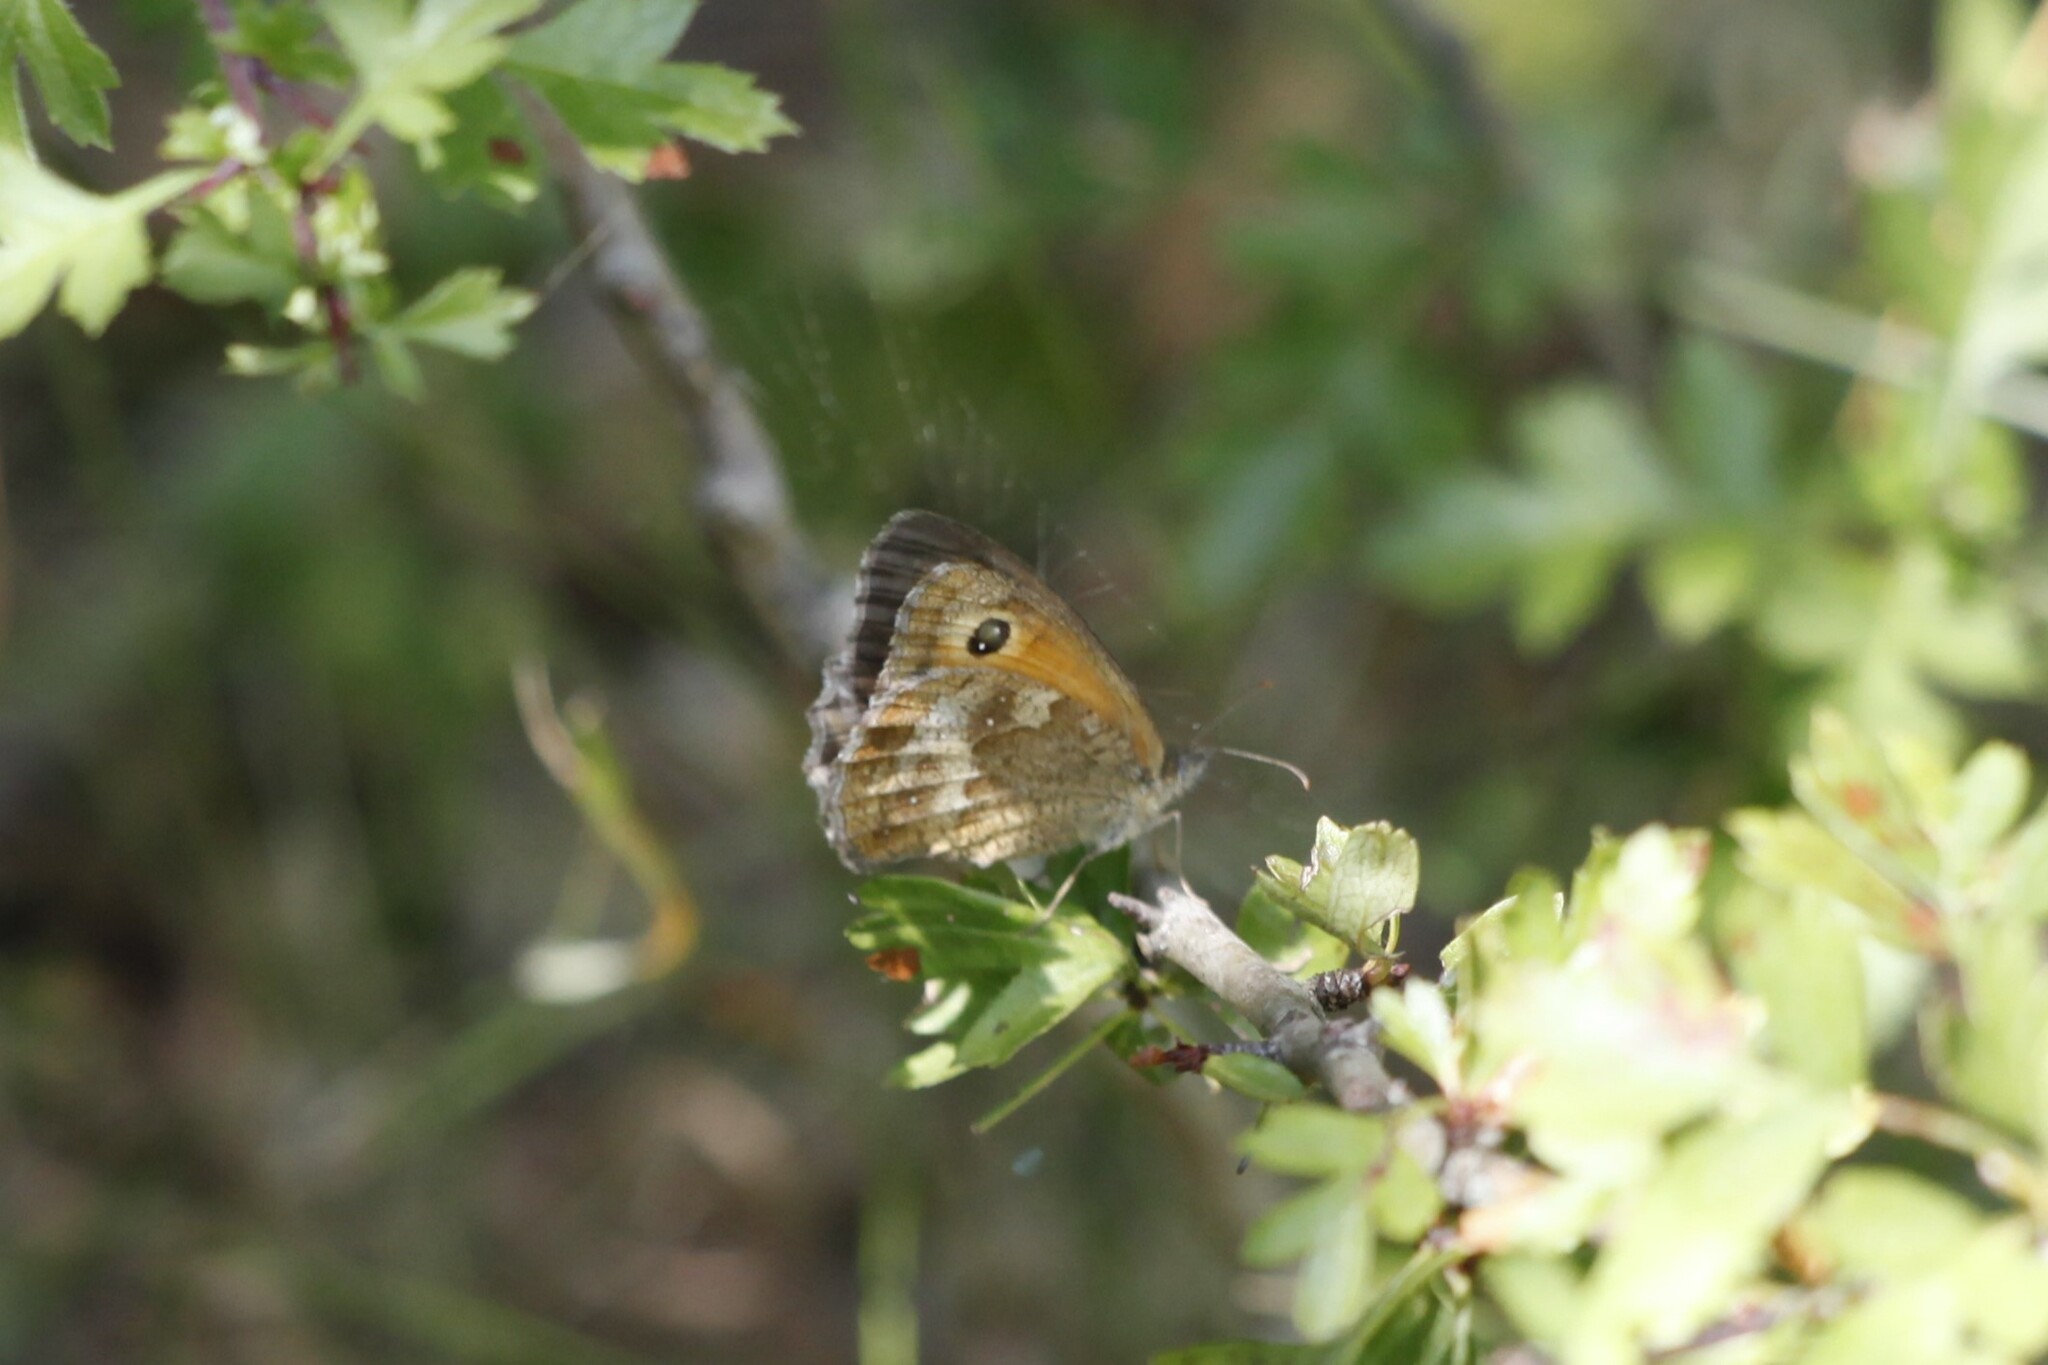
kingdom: Animalia
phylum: Arthropoda
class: Insecta
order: Lepidoptera
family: Nymphalidae
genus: Pyronia
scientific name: Pyronia tithonus
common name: Gatekeeper
